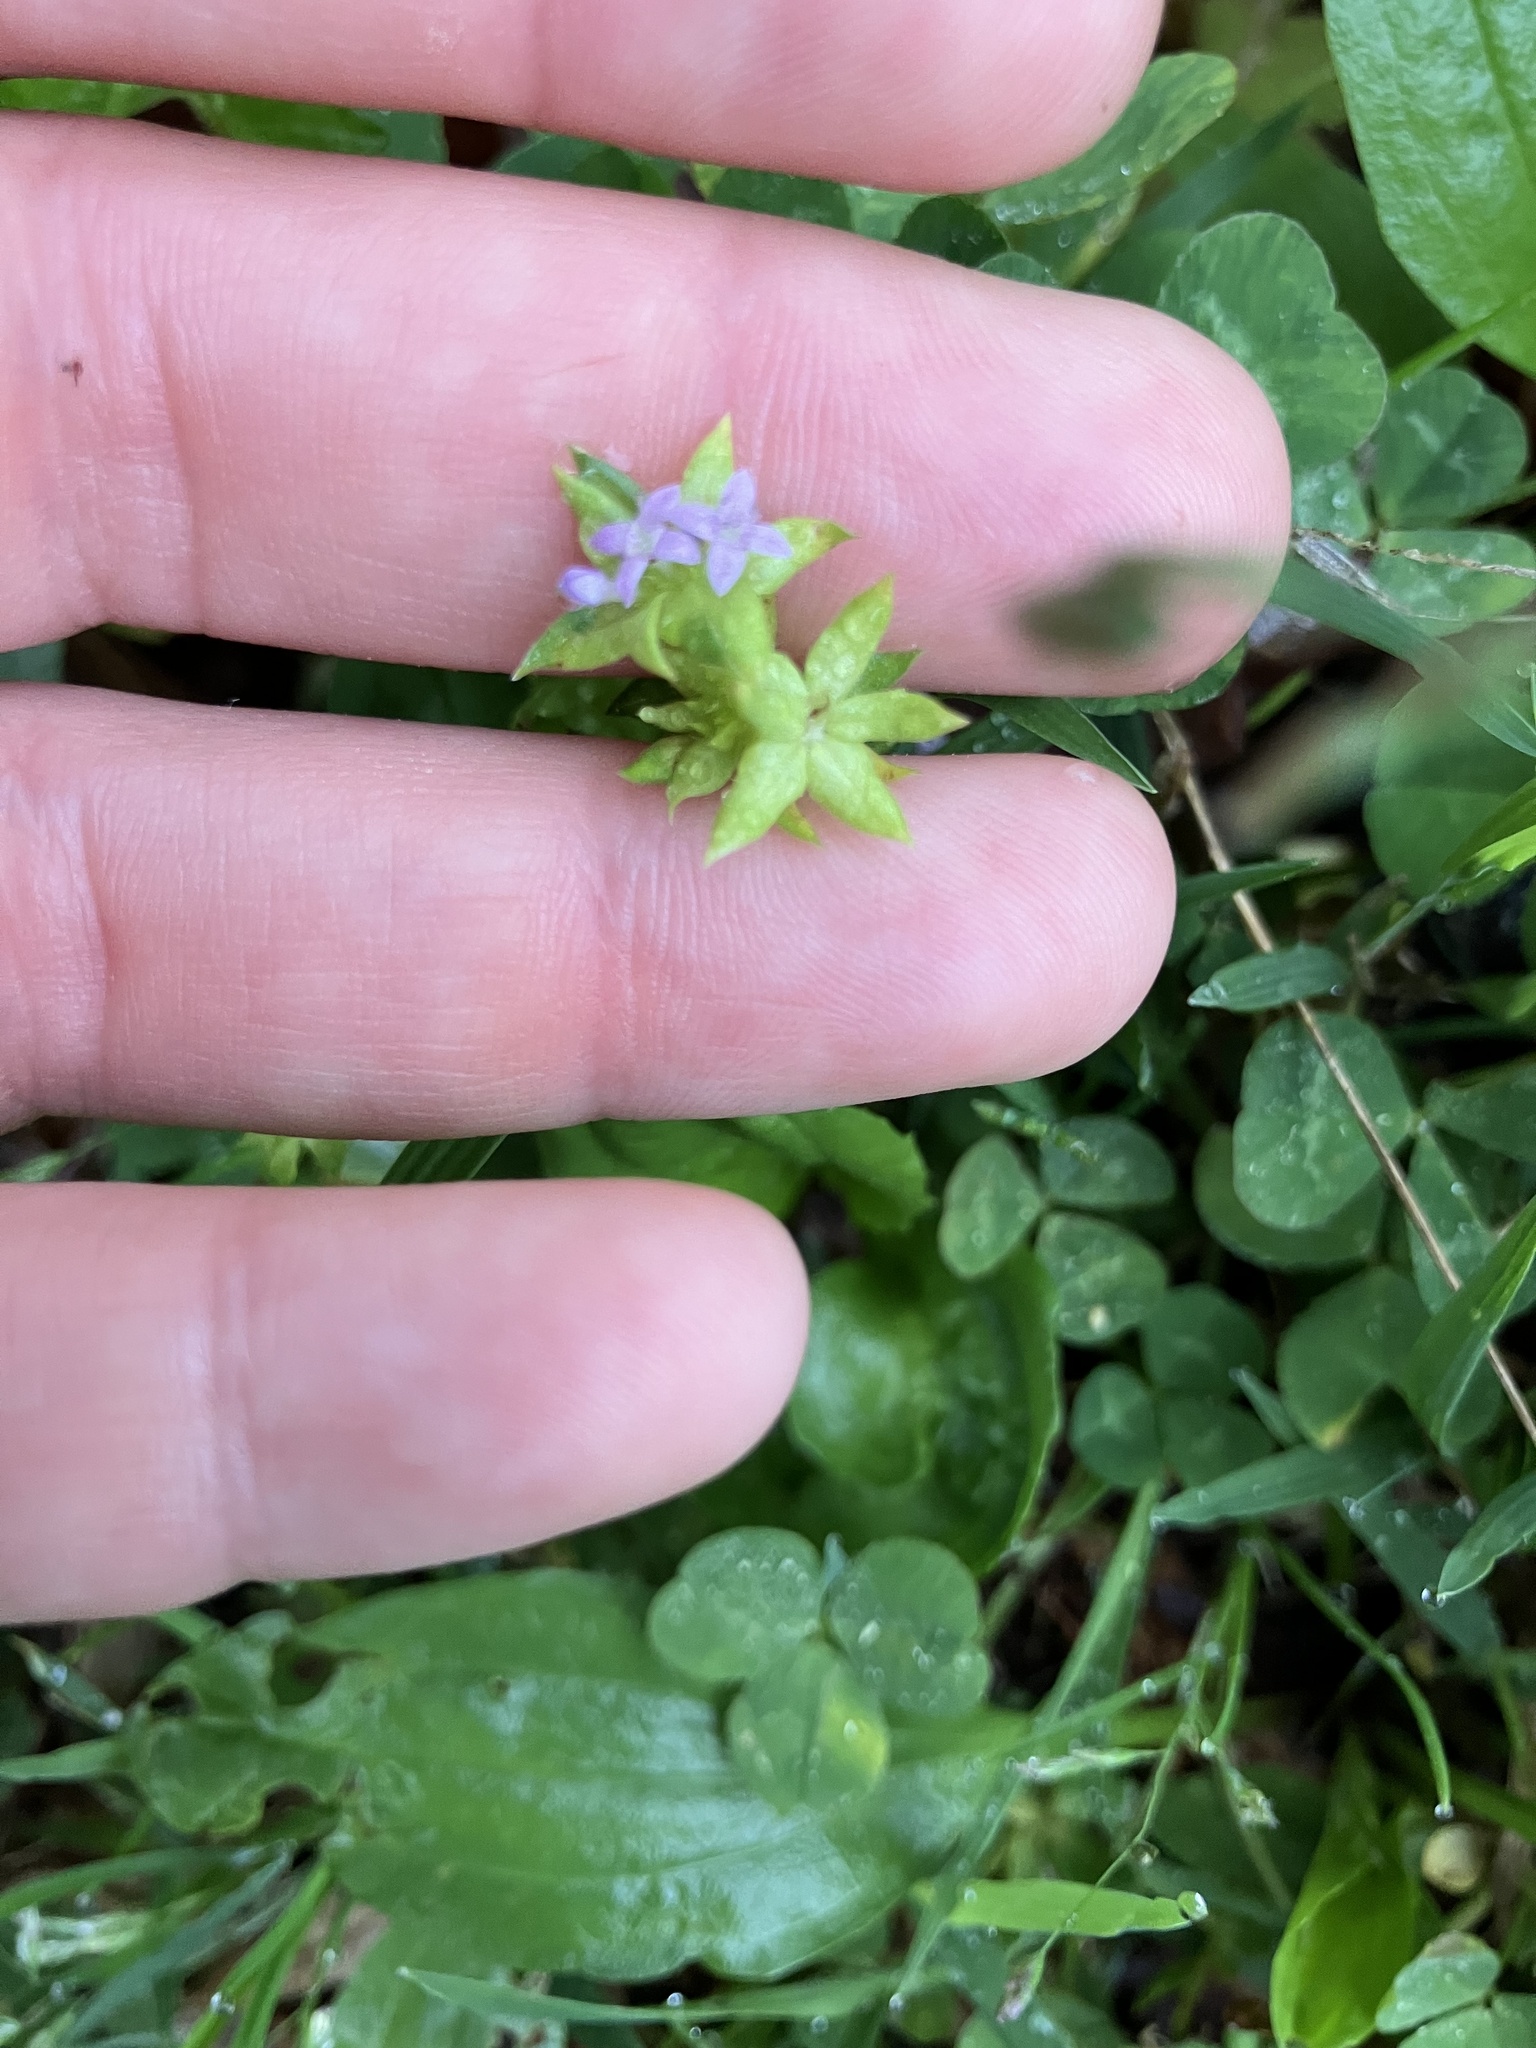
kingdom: Plantae
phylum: Tracheophyta
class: Magnoliopsida
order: Gentianales
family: Rubiaceae
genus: Sherardia
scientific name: Sherardia arvensis
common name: Field madder
